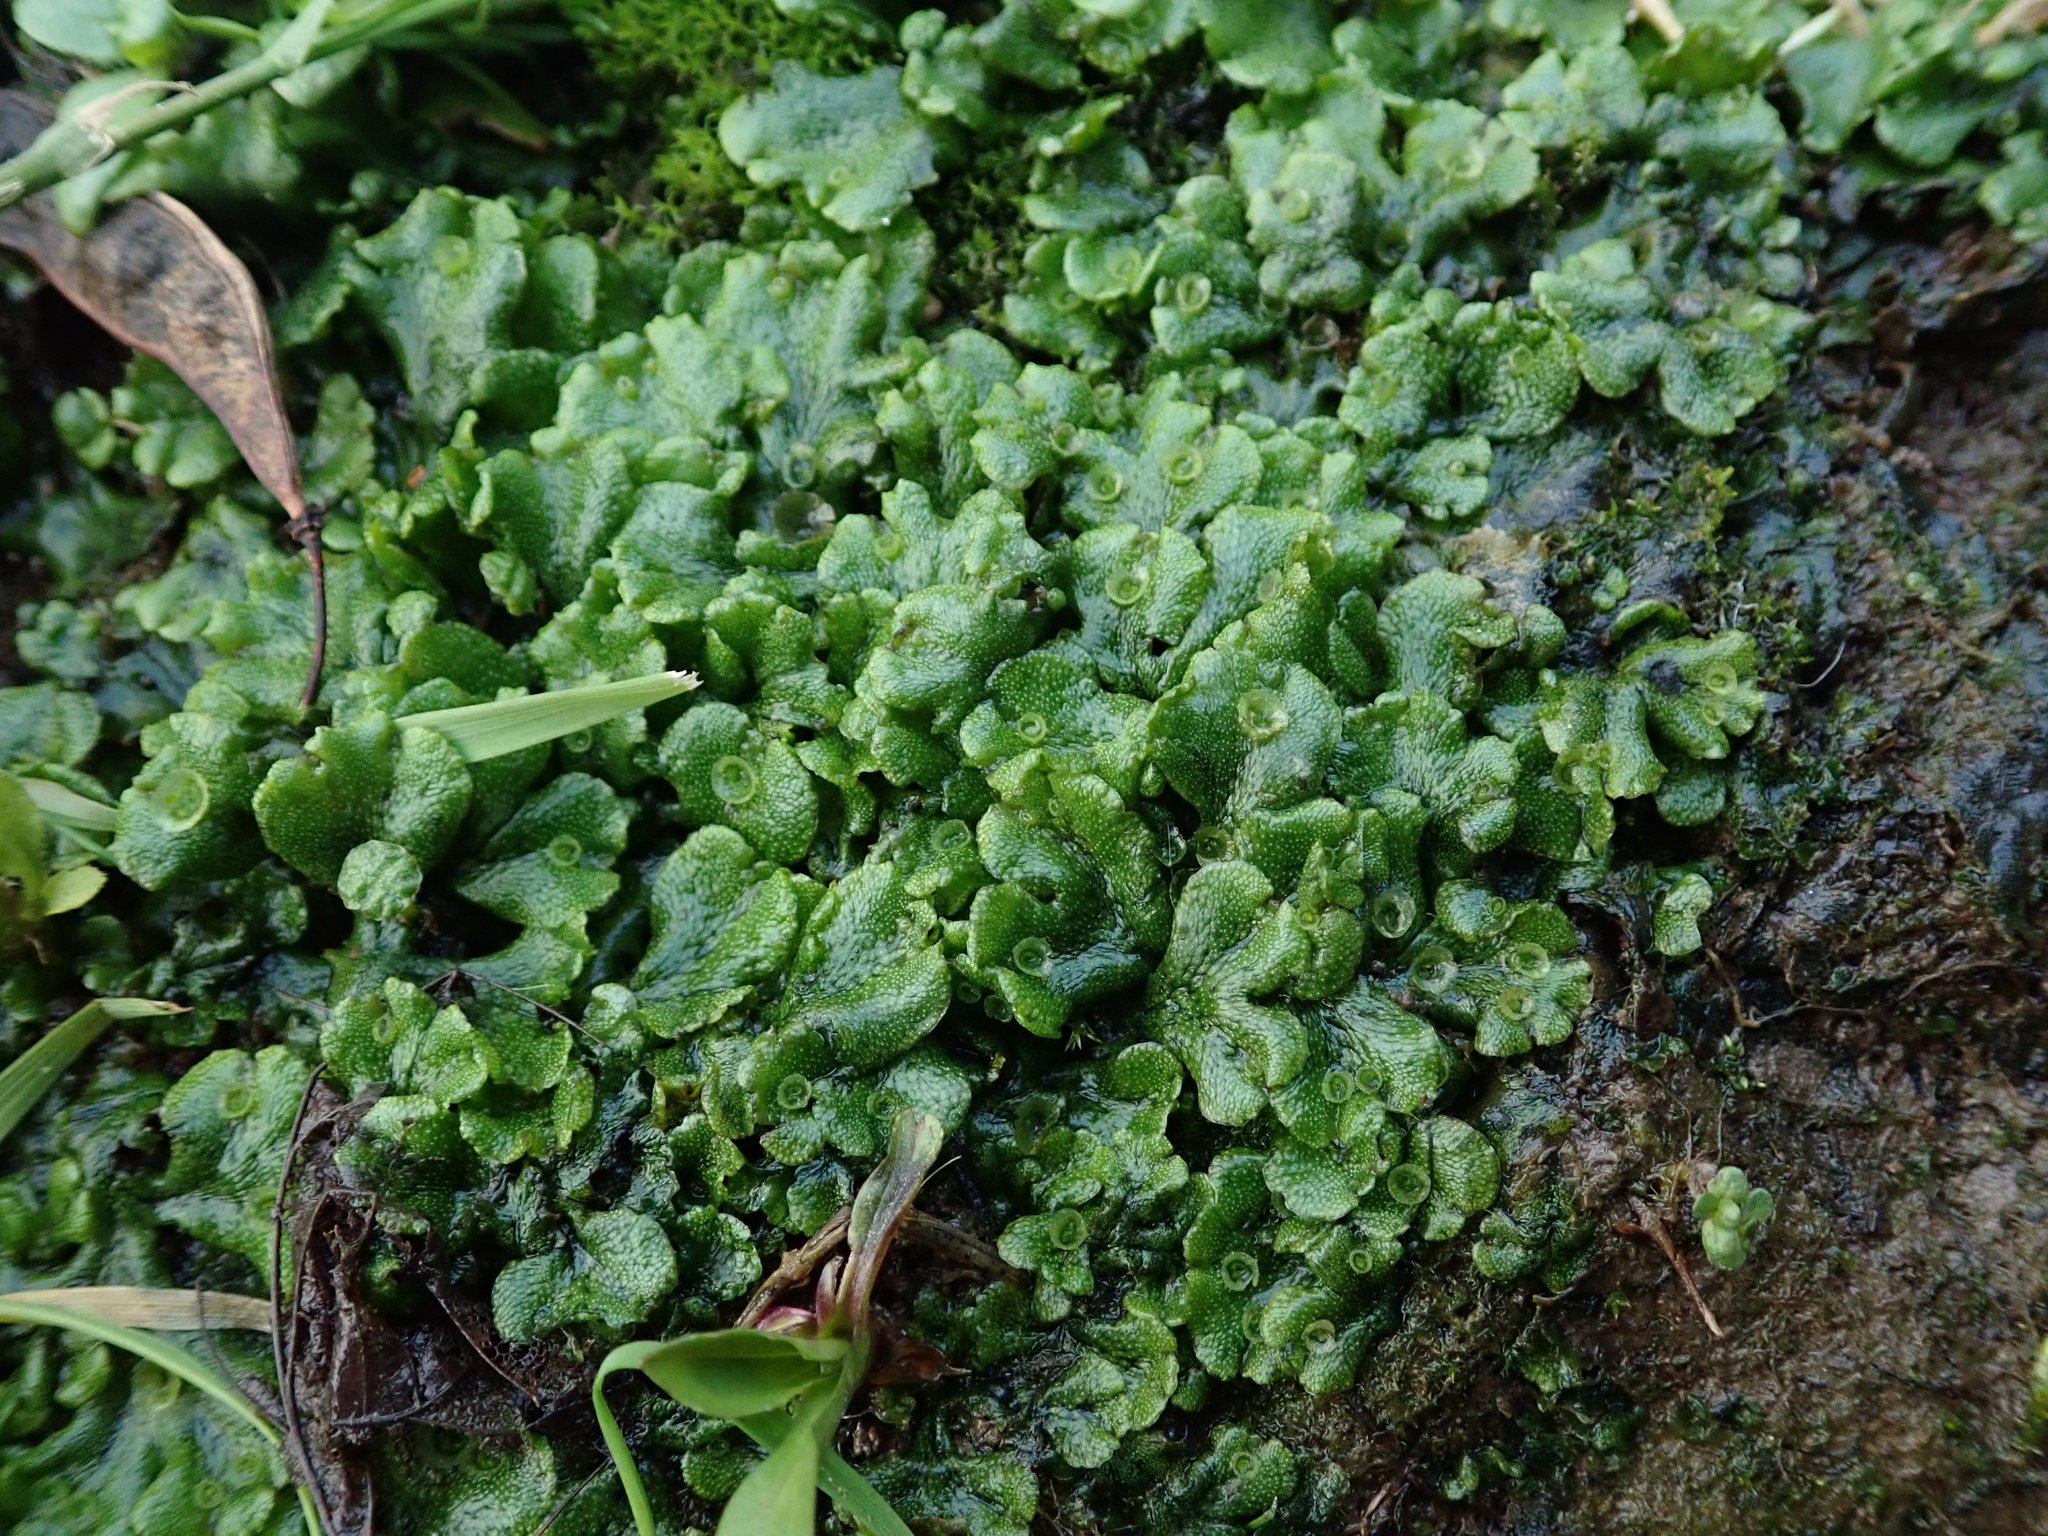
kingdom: Plantae
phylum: Marchantiophyta
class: Marchantiopsida
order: Marchantiales
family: Marchantiaceae
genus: Marchantia
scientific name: Marchantia polymorpha
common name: Common liverwort
